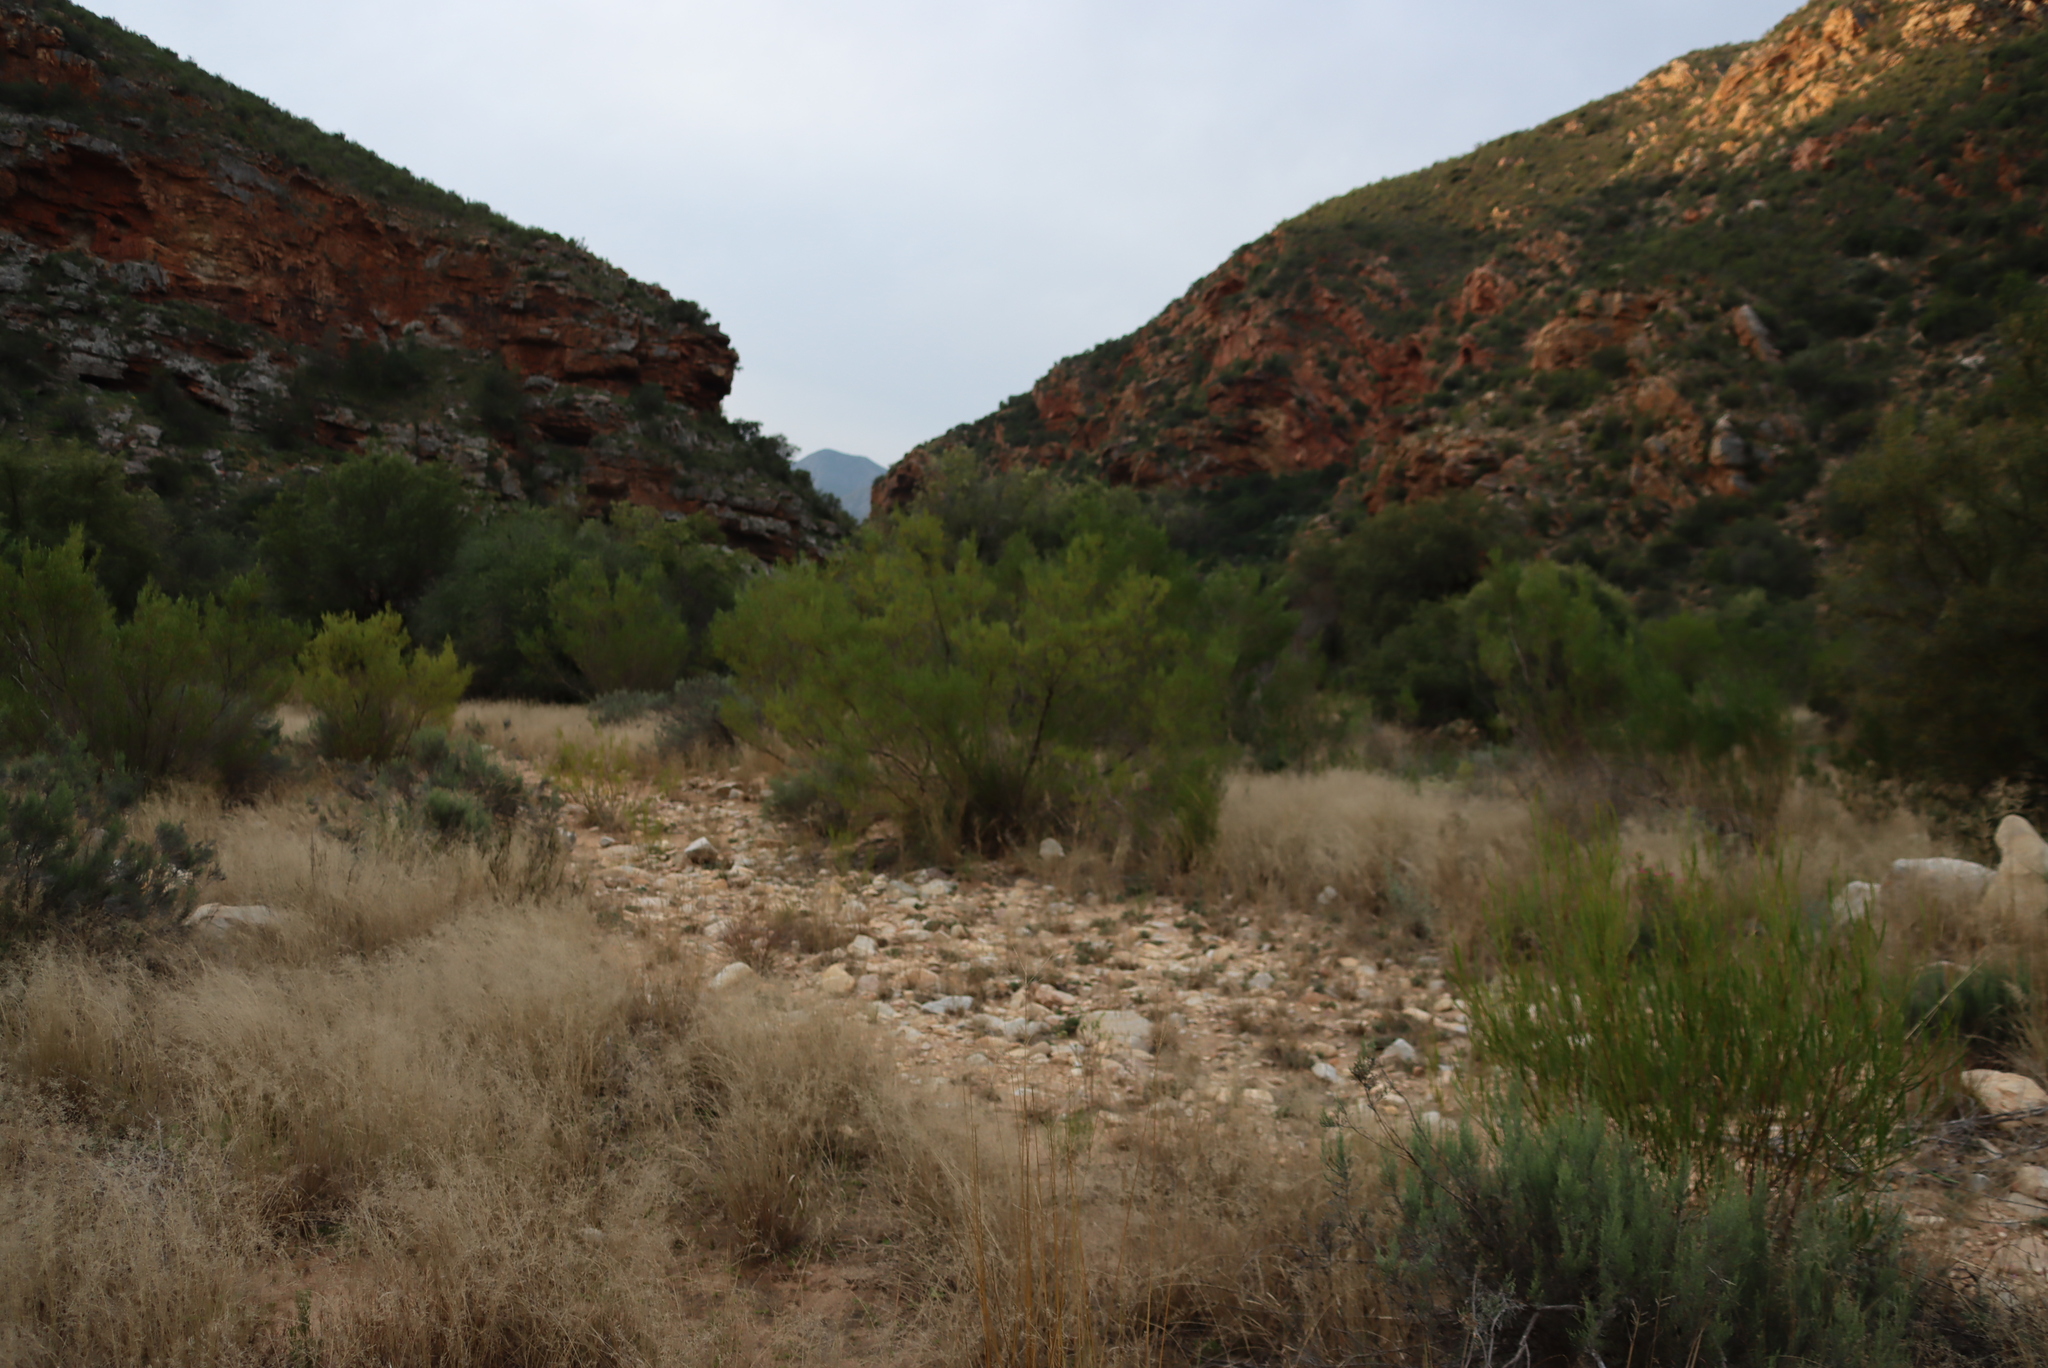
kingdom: Plantae
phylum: Tracheophyta
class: Magnoliopsida
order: Sapindales
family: Sapindaceae
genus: Dodonaea
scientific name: Dodonaea viscosa
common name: Hopbush
